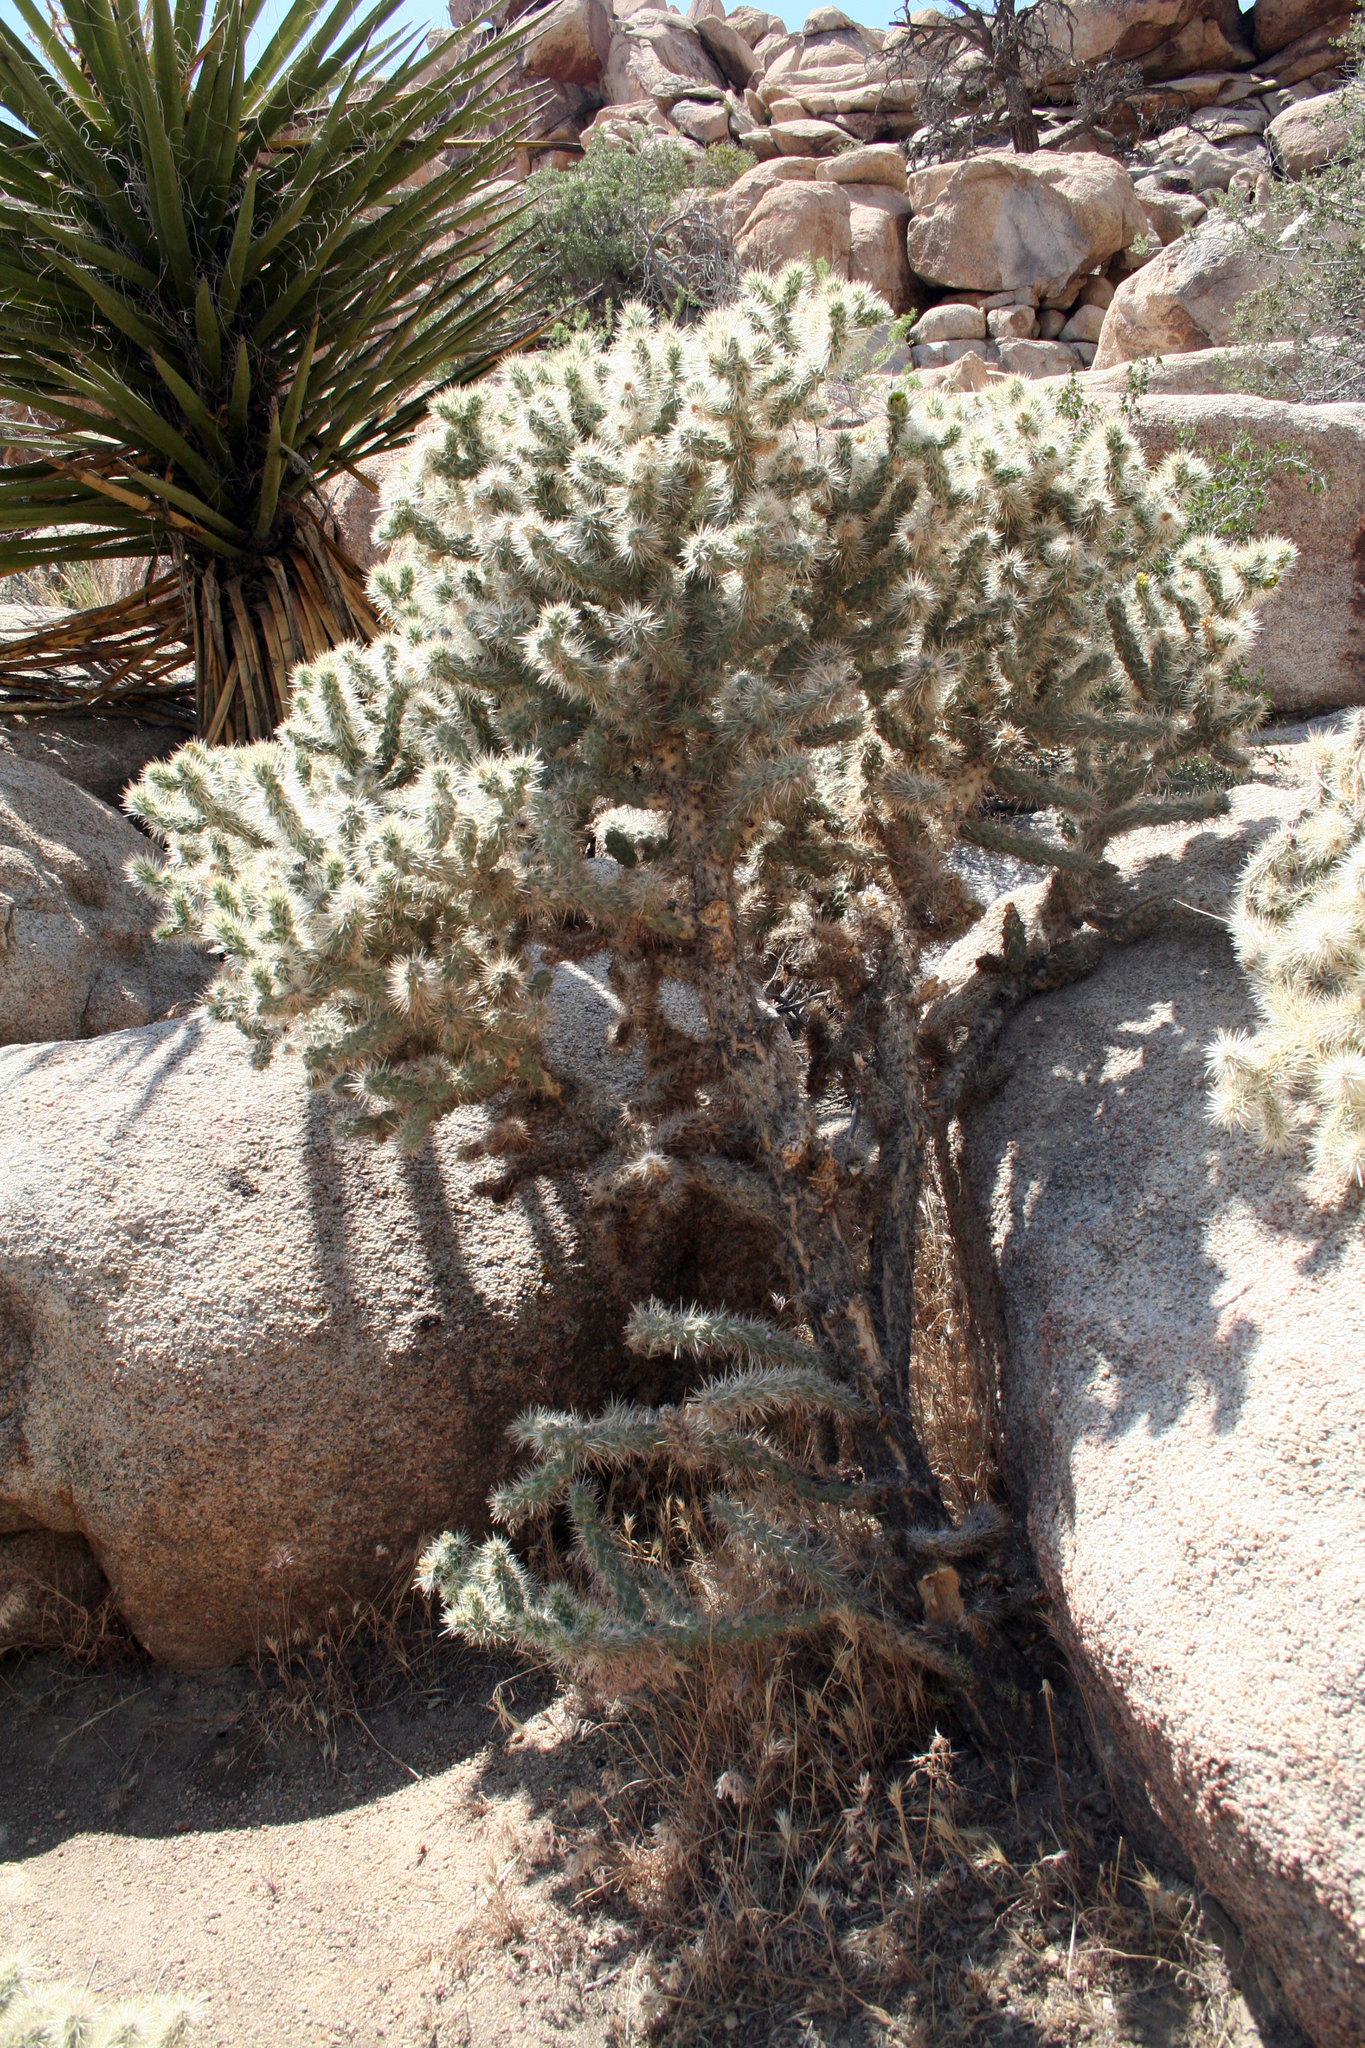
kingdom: Plantae
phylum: Tracheophyta
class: Magnoliopsida
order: Caryophyllales
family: Cactaceae
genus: Cylindropuntia
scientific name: Cylindropuntia echinocarpa
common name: Ground cholla
